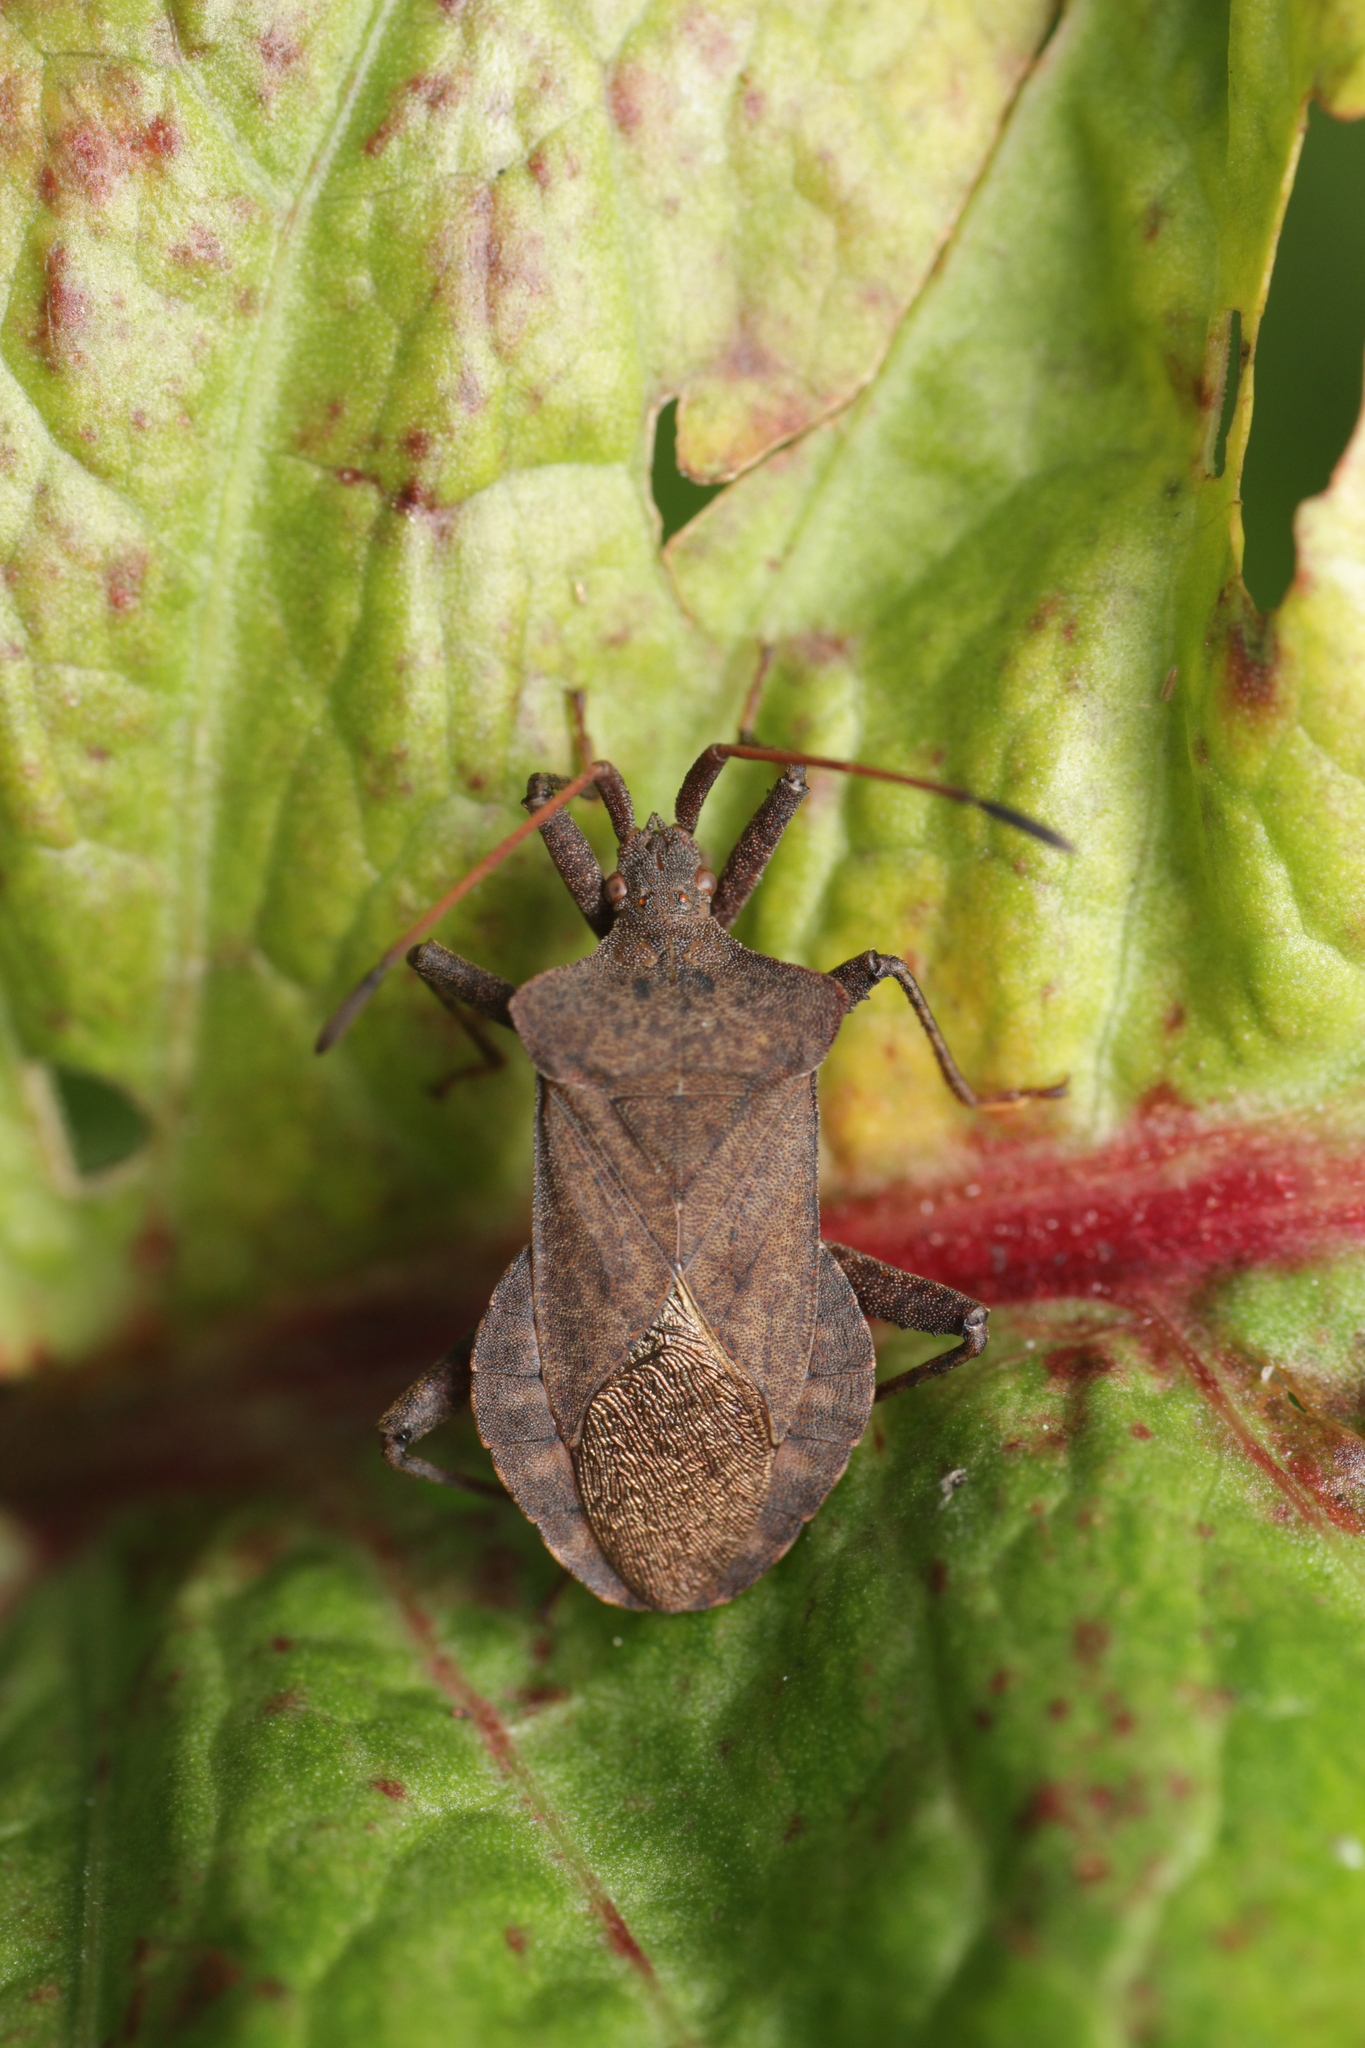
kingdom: Animalia
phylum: Arthropoda
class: Insecta
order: Hemiptera
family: Coreidae
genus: Coreus
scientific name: Coreus marginatus
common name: Dock bug
